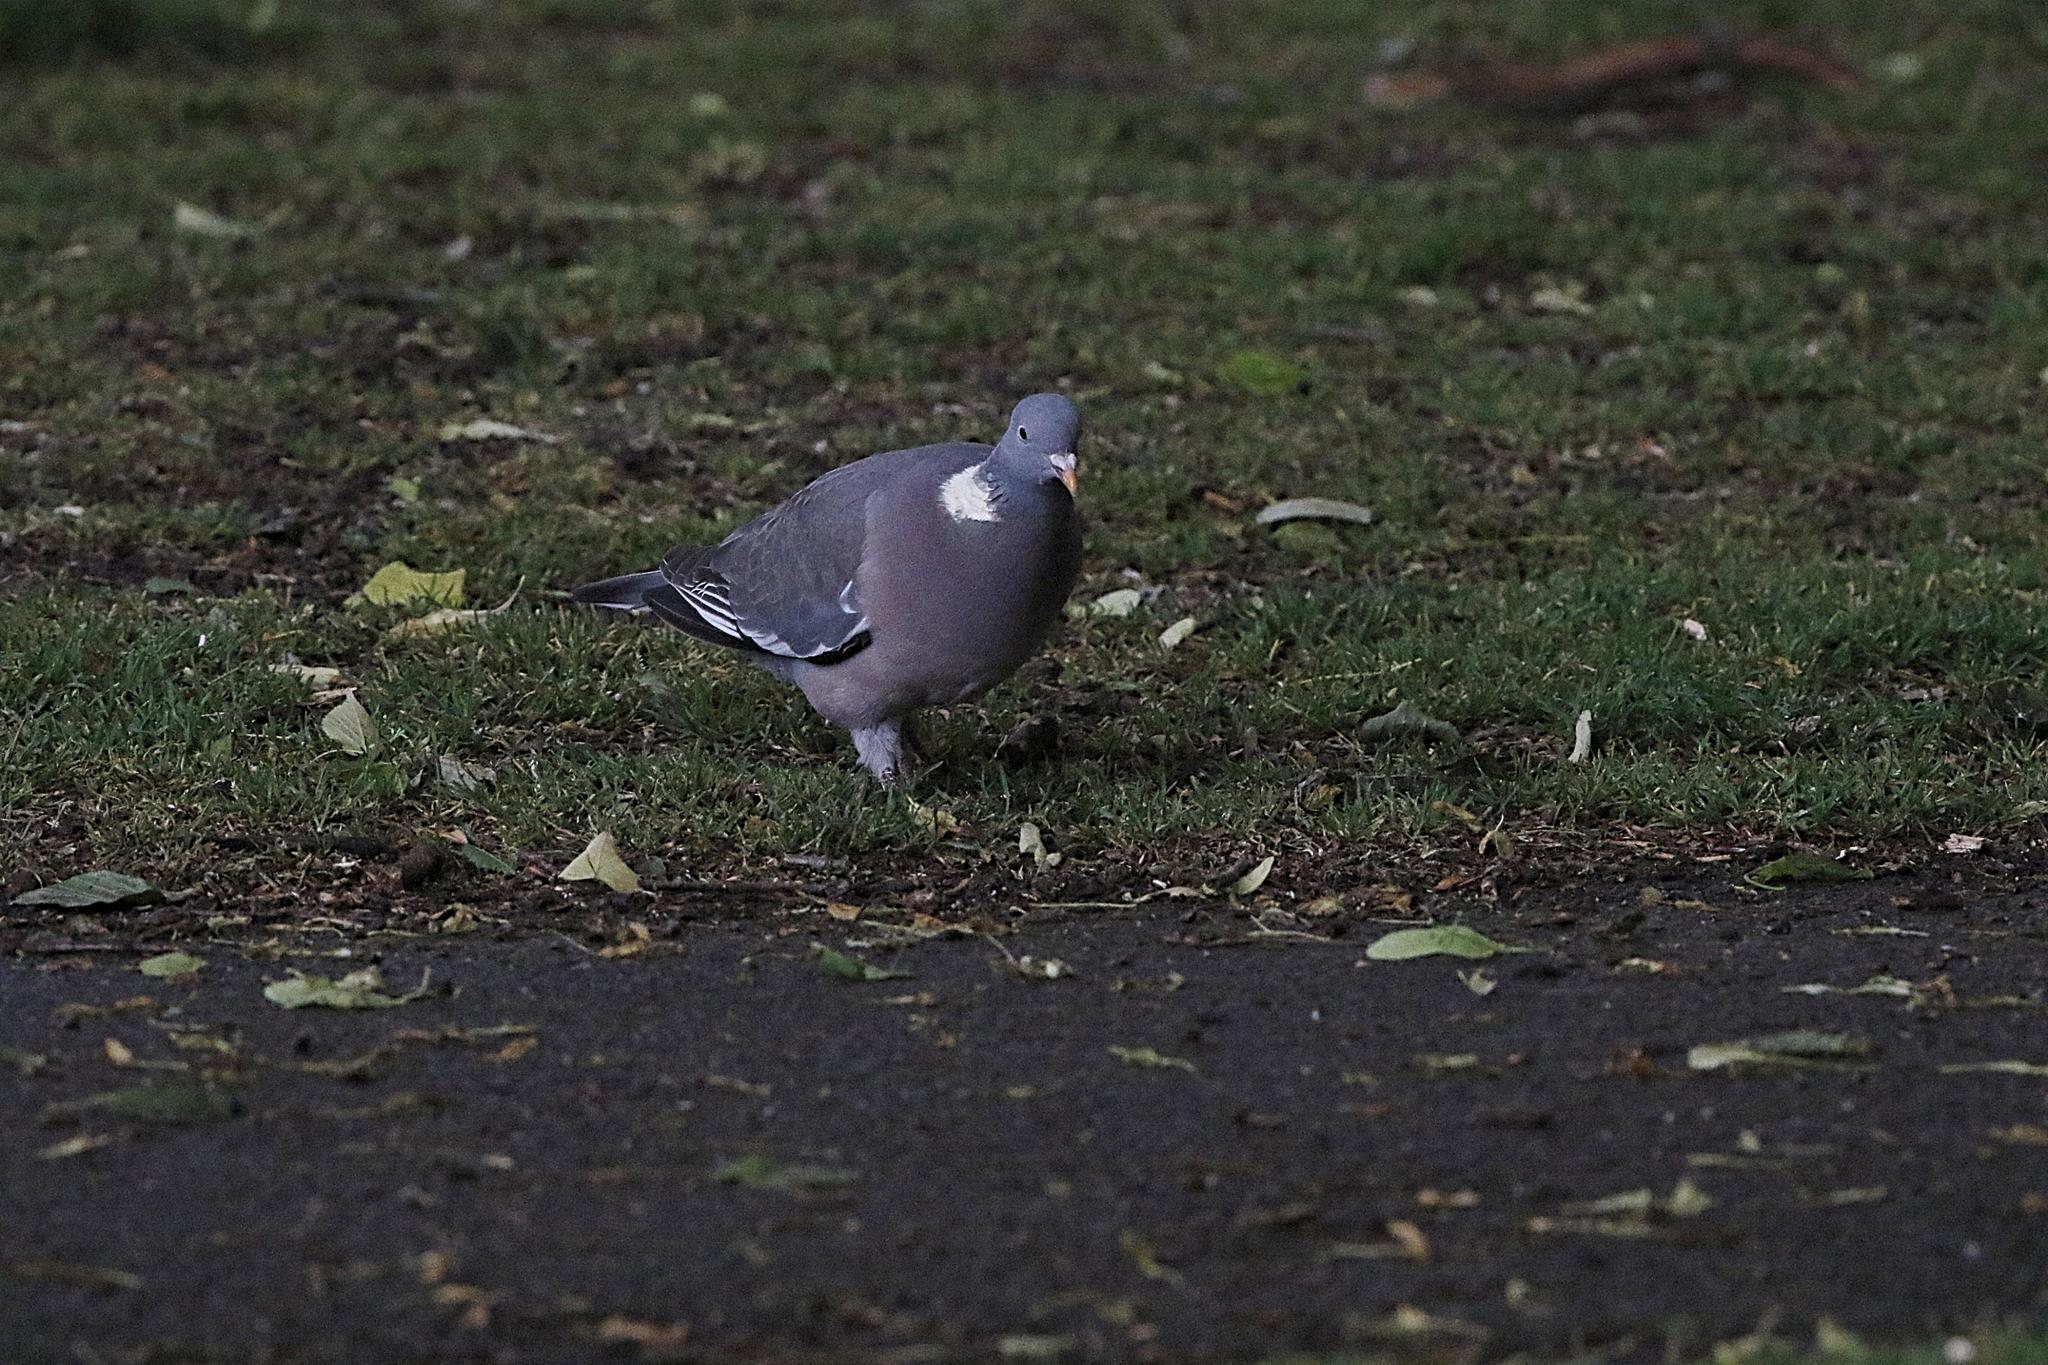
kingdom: Animalia
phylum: Chordata
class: Aves
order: Columbiformes
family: Columbidae
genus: Columba
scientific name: Columba palumbus
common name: Common wood pigeon
